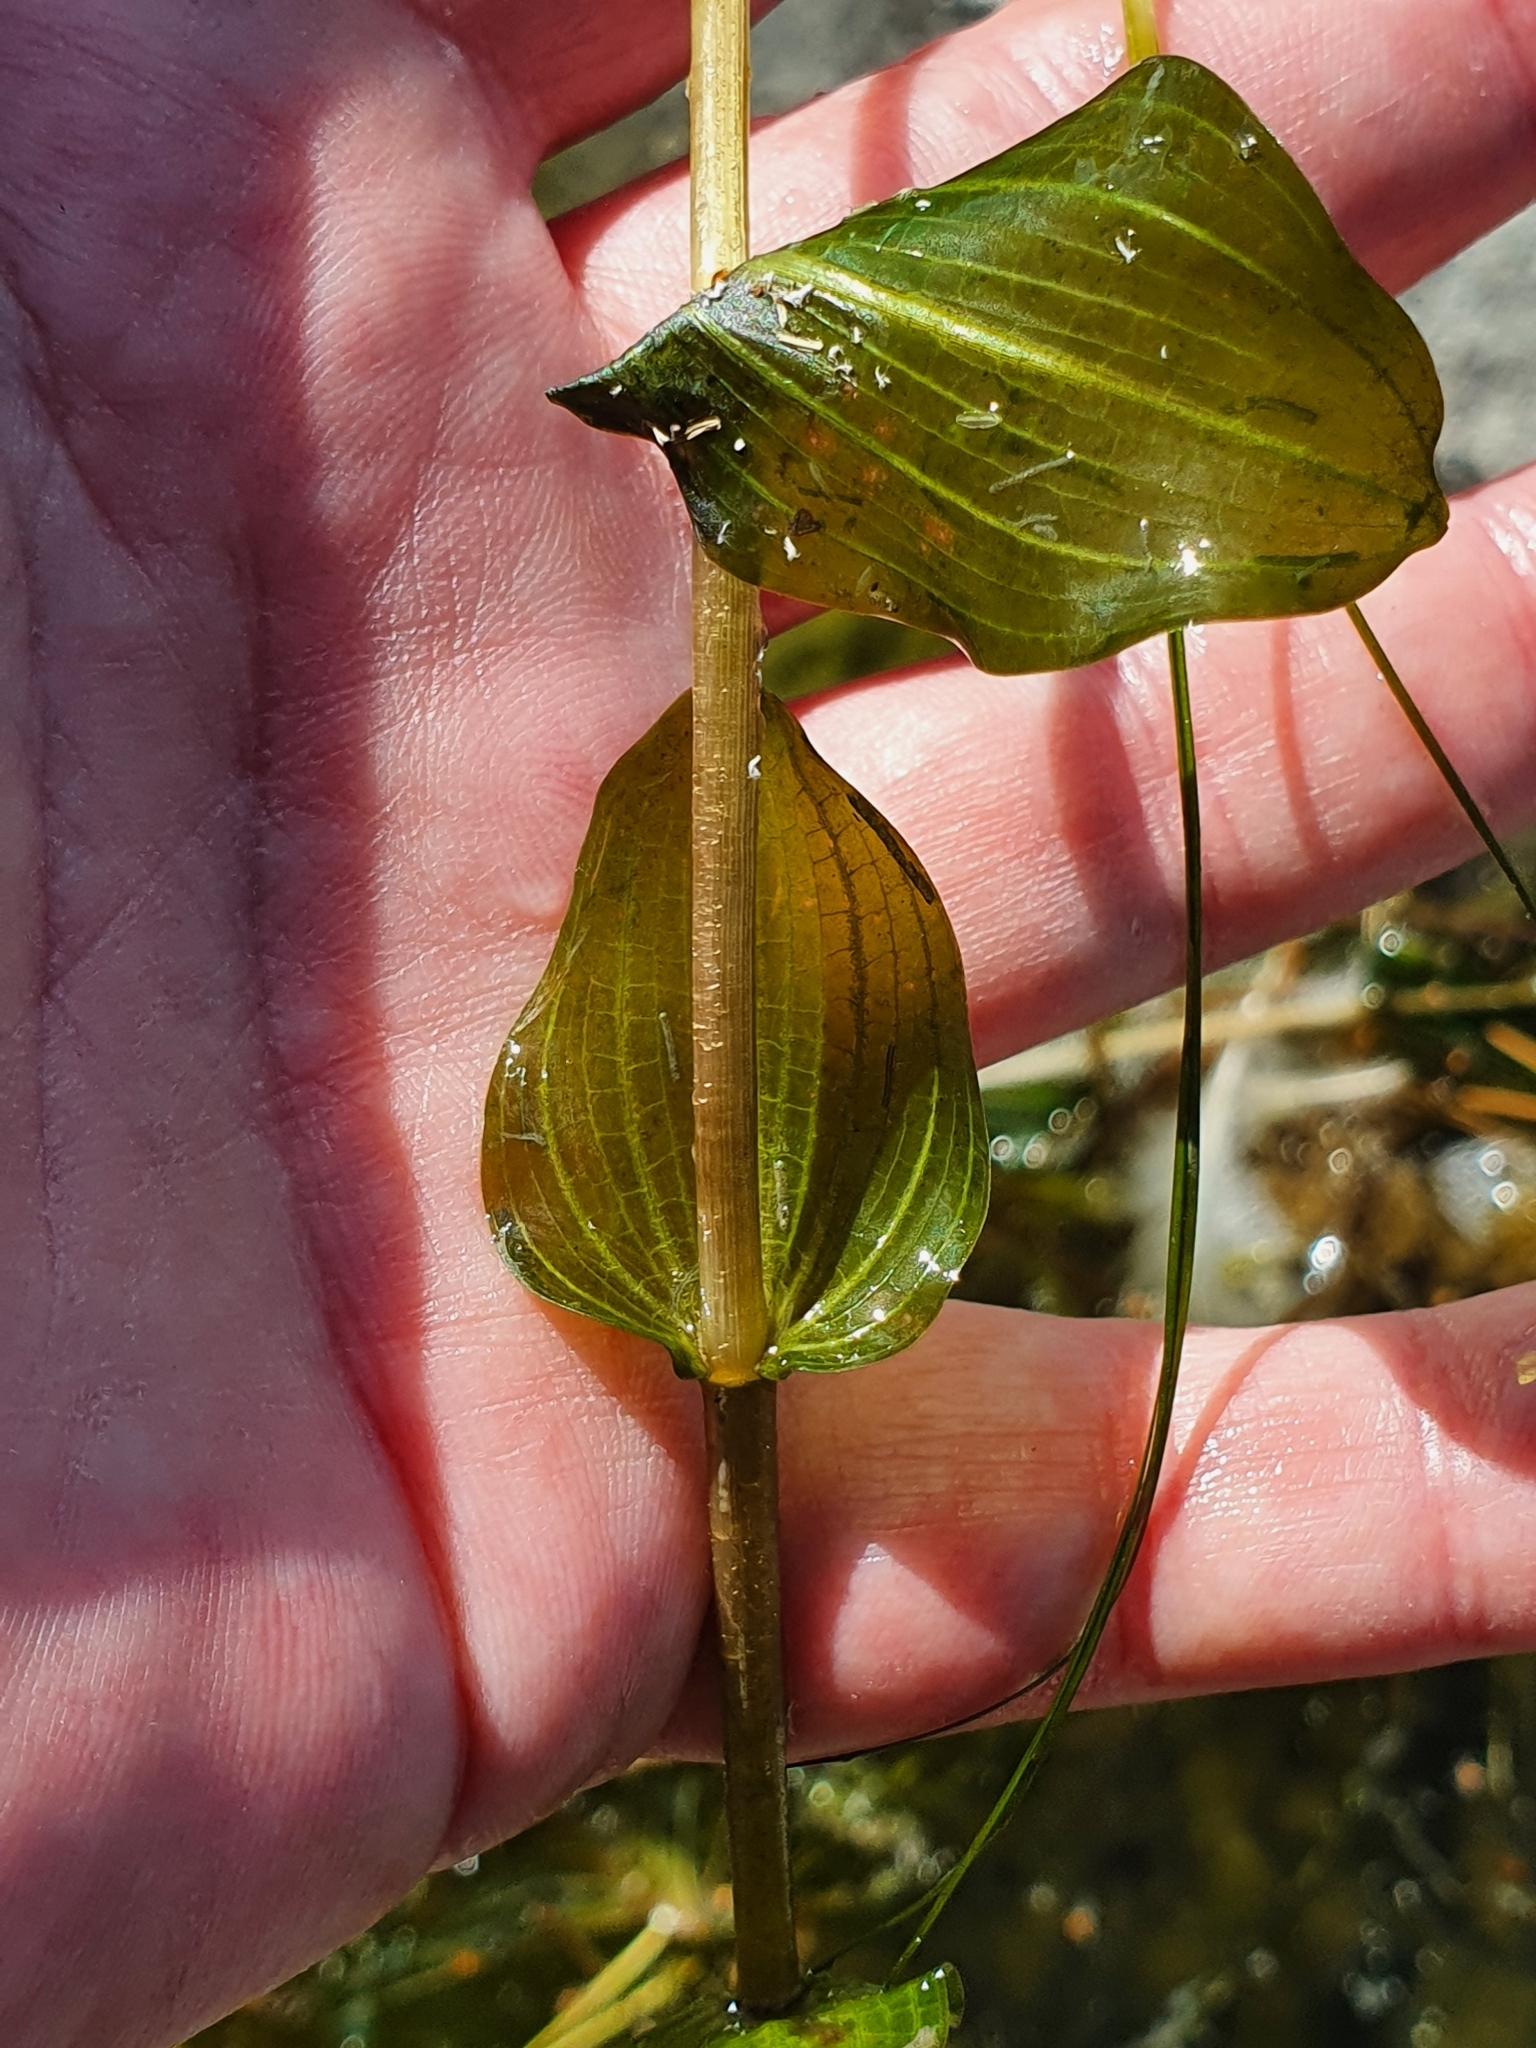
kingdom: Plantae
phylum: Tracheophyta
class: Liliopsida
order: Alismatales
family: Potamogetonaceae
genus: Potamogeton
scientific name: Potamogeton perfoliatus
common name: Perfoliate pondweed
